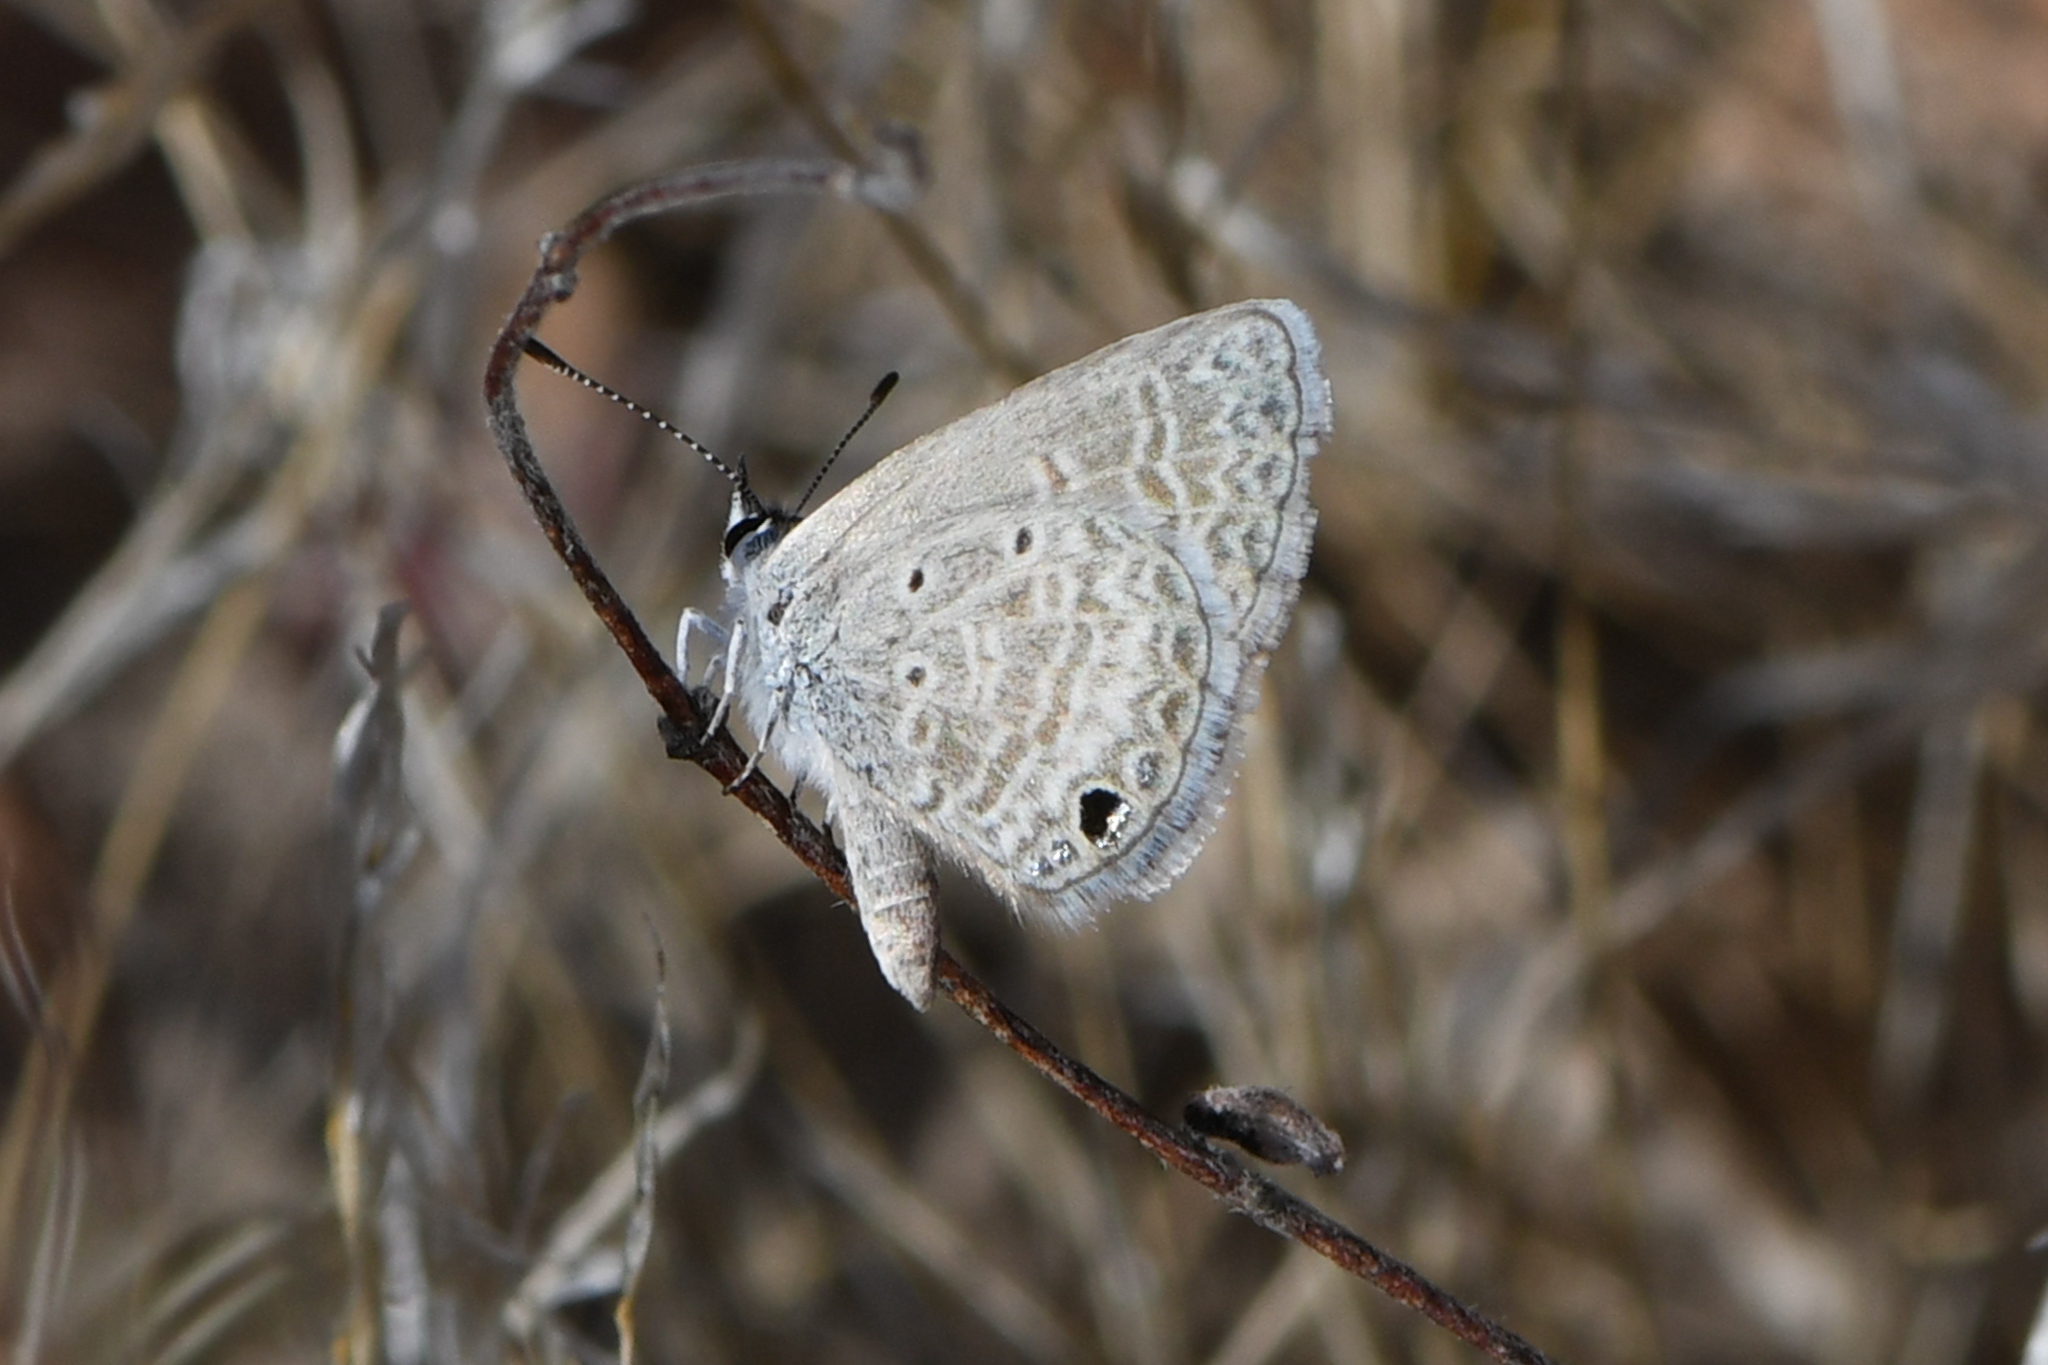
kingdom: Animalia
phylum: Arthropoda
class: Insecta
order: Lepidoptera
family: Lycaenidae
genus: Hemiargus
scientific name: Hemiargus ceraunus
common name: Ceraunus blue
